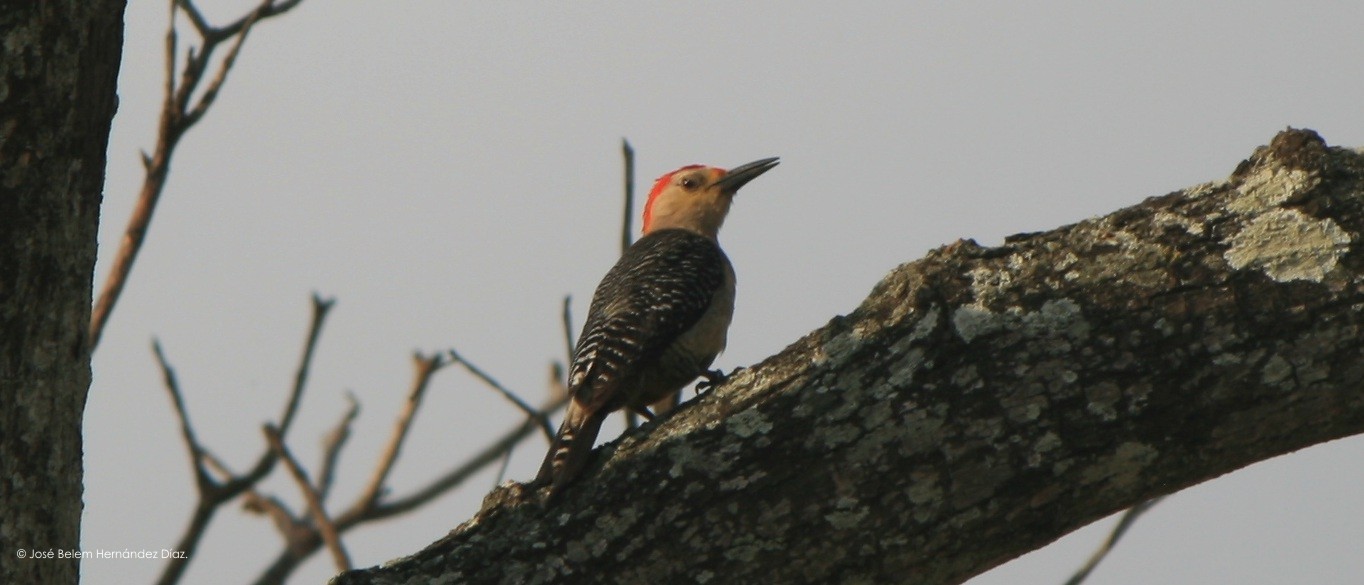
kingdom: Animalia
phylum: Chordata
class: Aves
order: Piciformes
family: Picidae
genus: Melanerpes
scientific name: Melanerpes aurifrons
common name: Golden-fronted woodpecker
